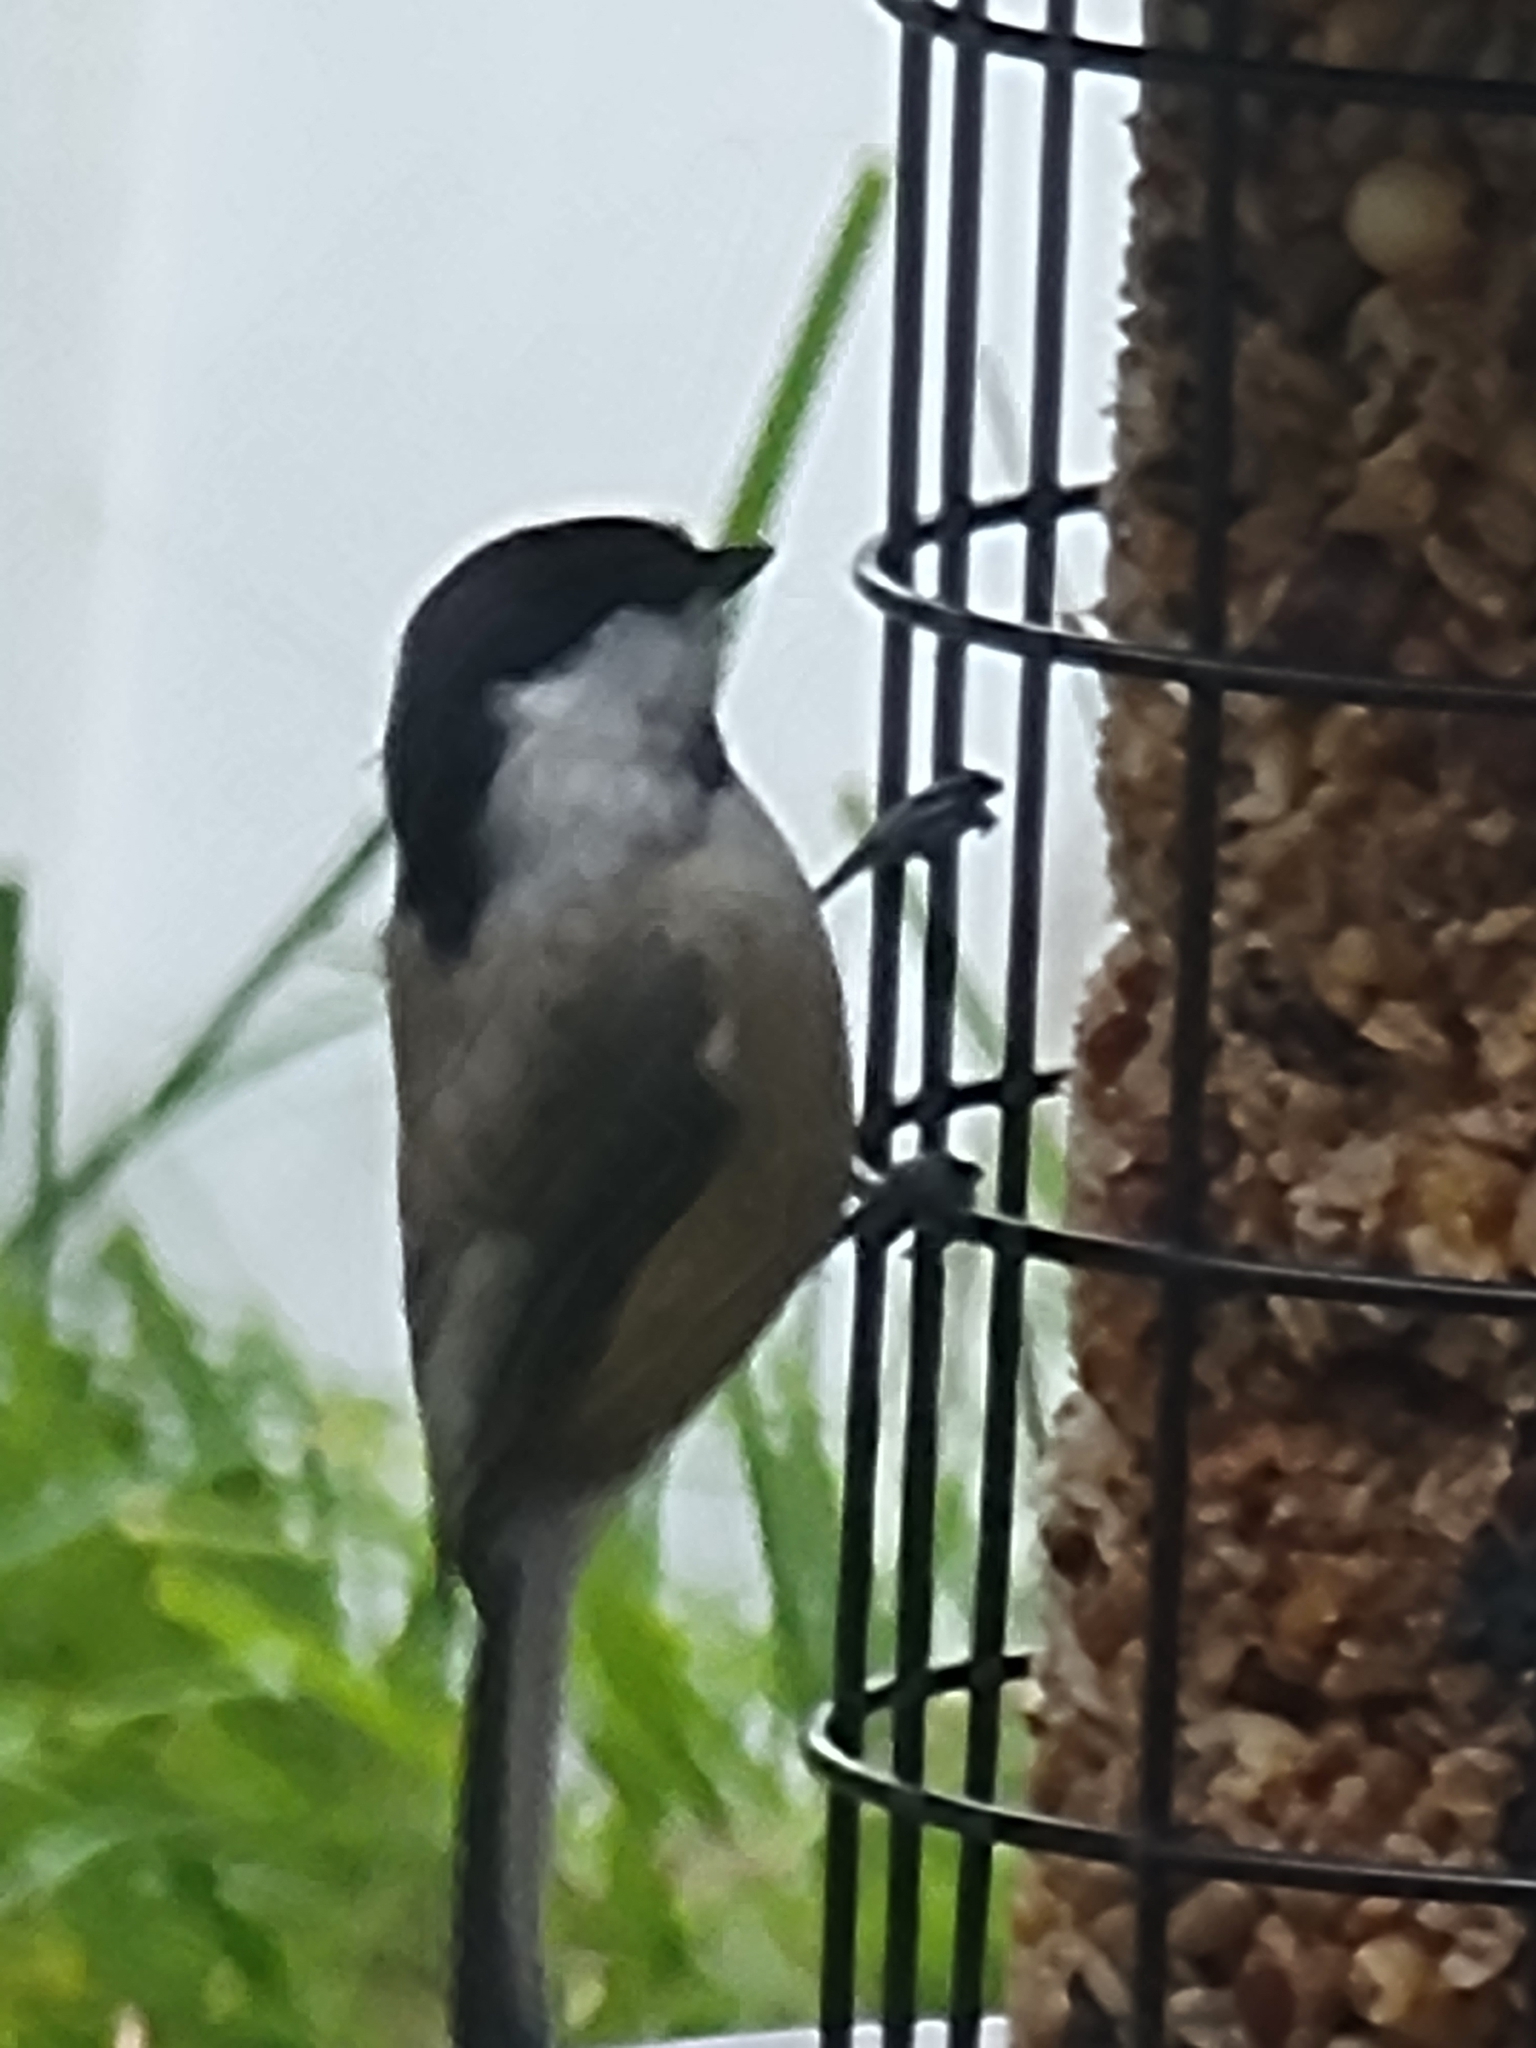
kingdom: Animalia
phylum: Chordata
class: Aves
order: Passeriformes
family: Paridae
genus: Poecile
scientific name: Poecile carolinensis
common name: Carolina chickadee
